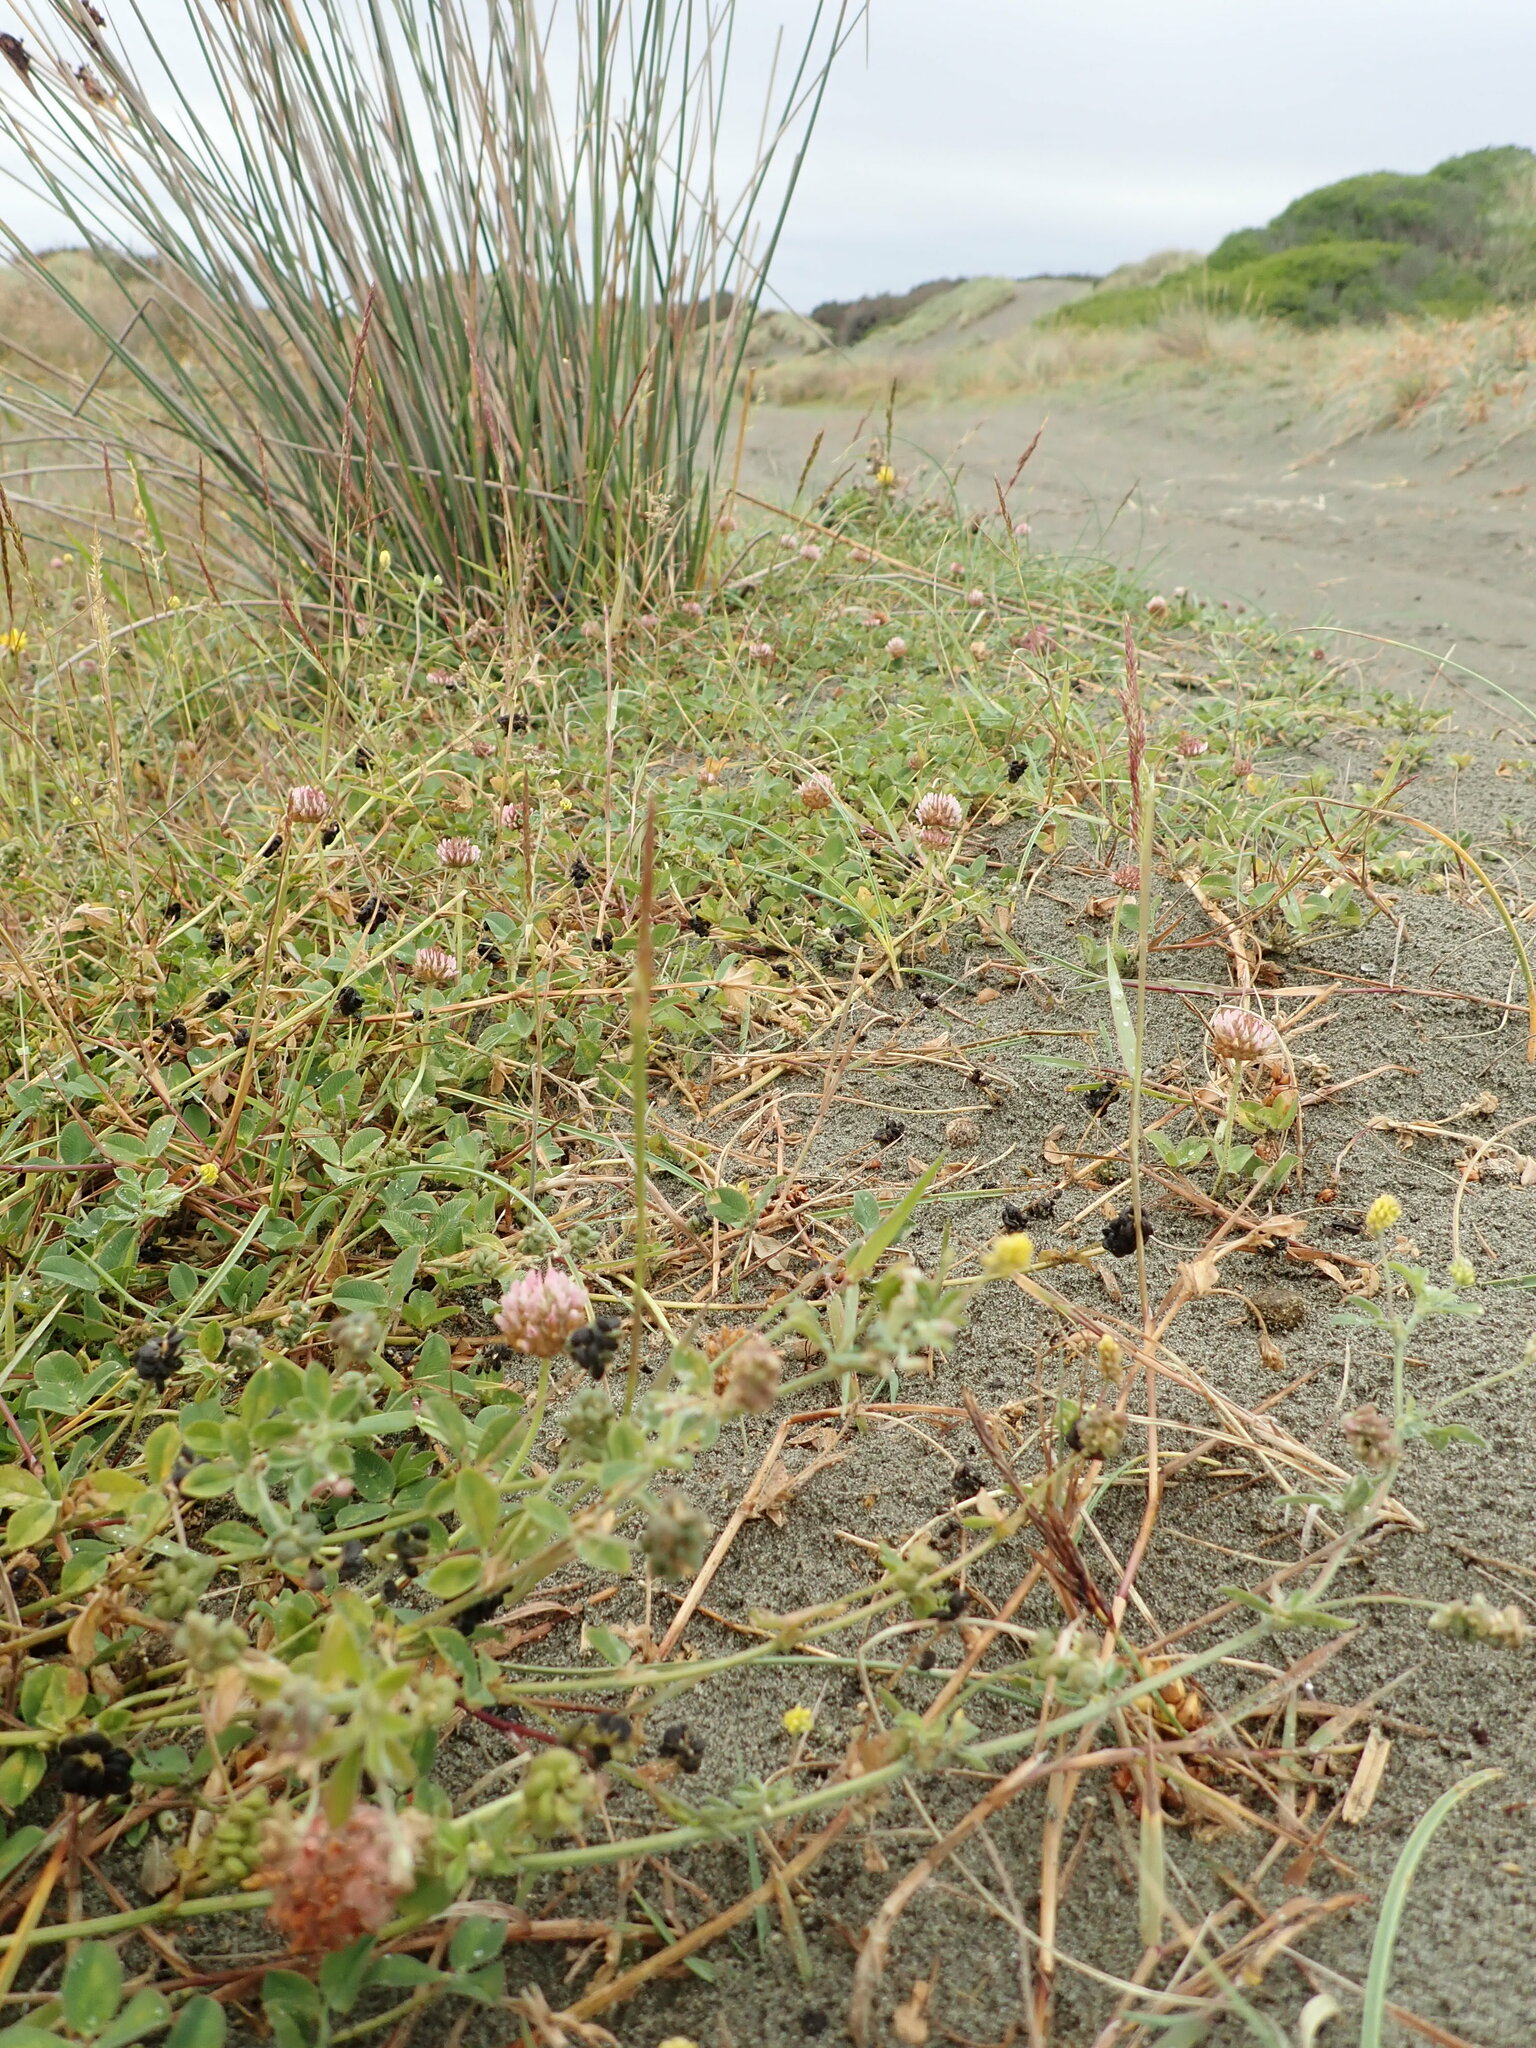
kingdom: Plantae
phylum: Tracheophyta
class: Magnoliopsida
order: Fabales
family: Fabaceae
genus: Trifolium
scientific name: Trifolium fragiferum
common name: Strawberry clover
